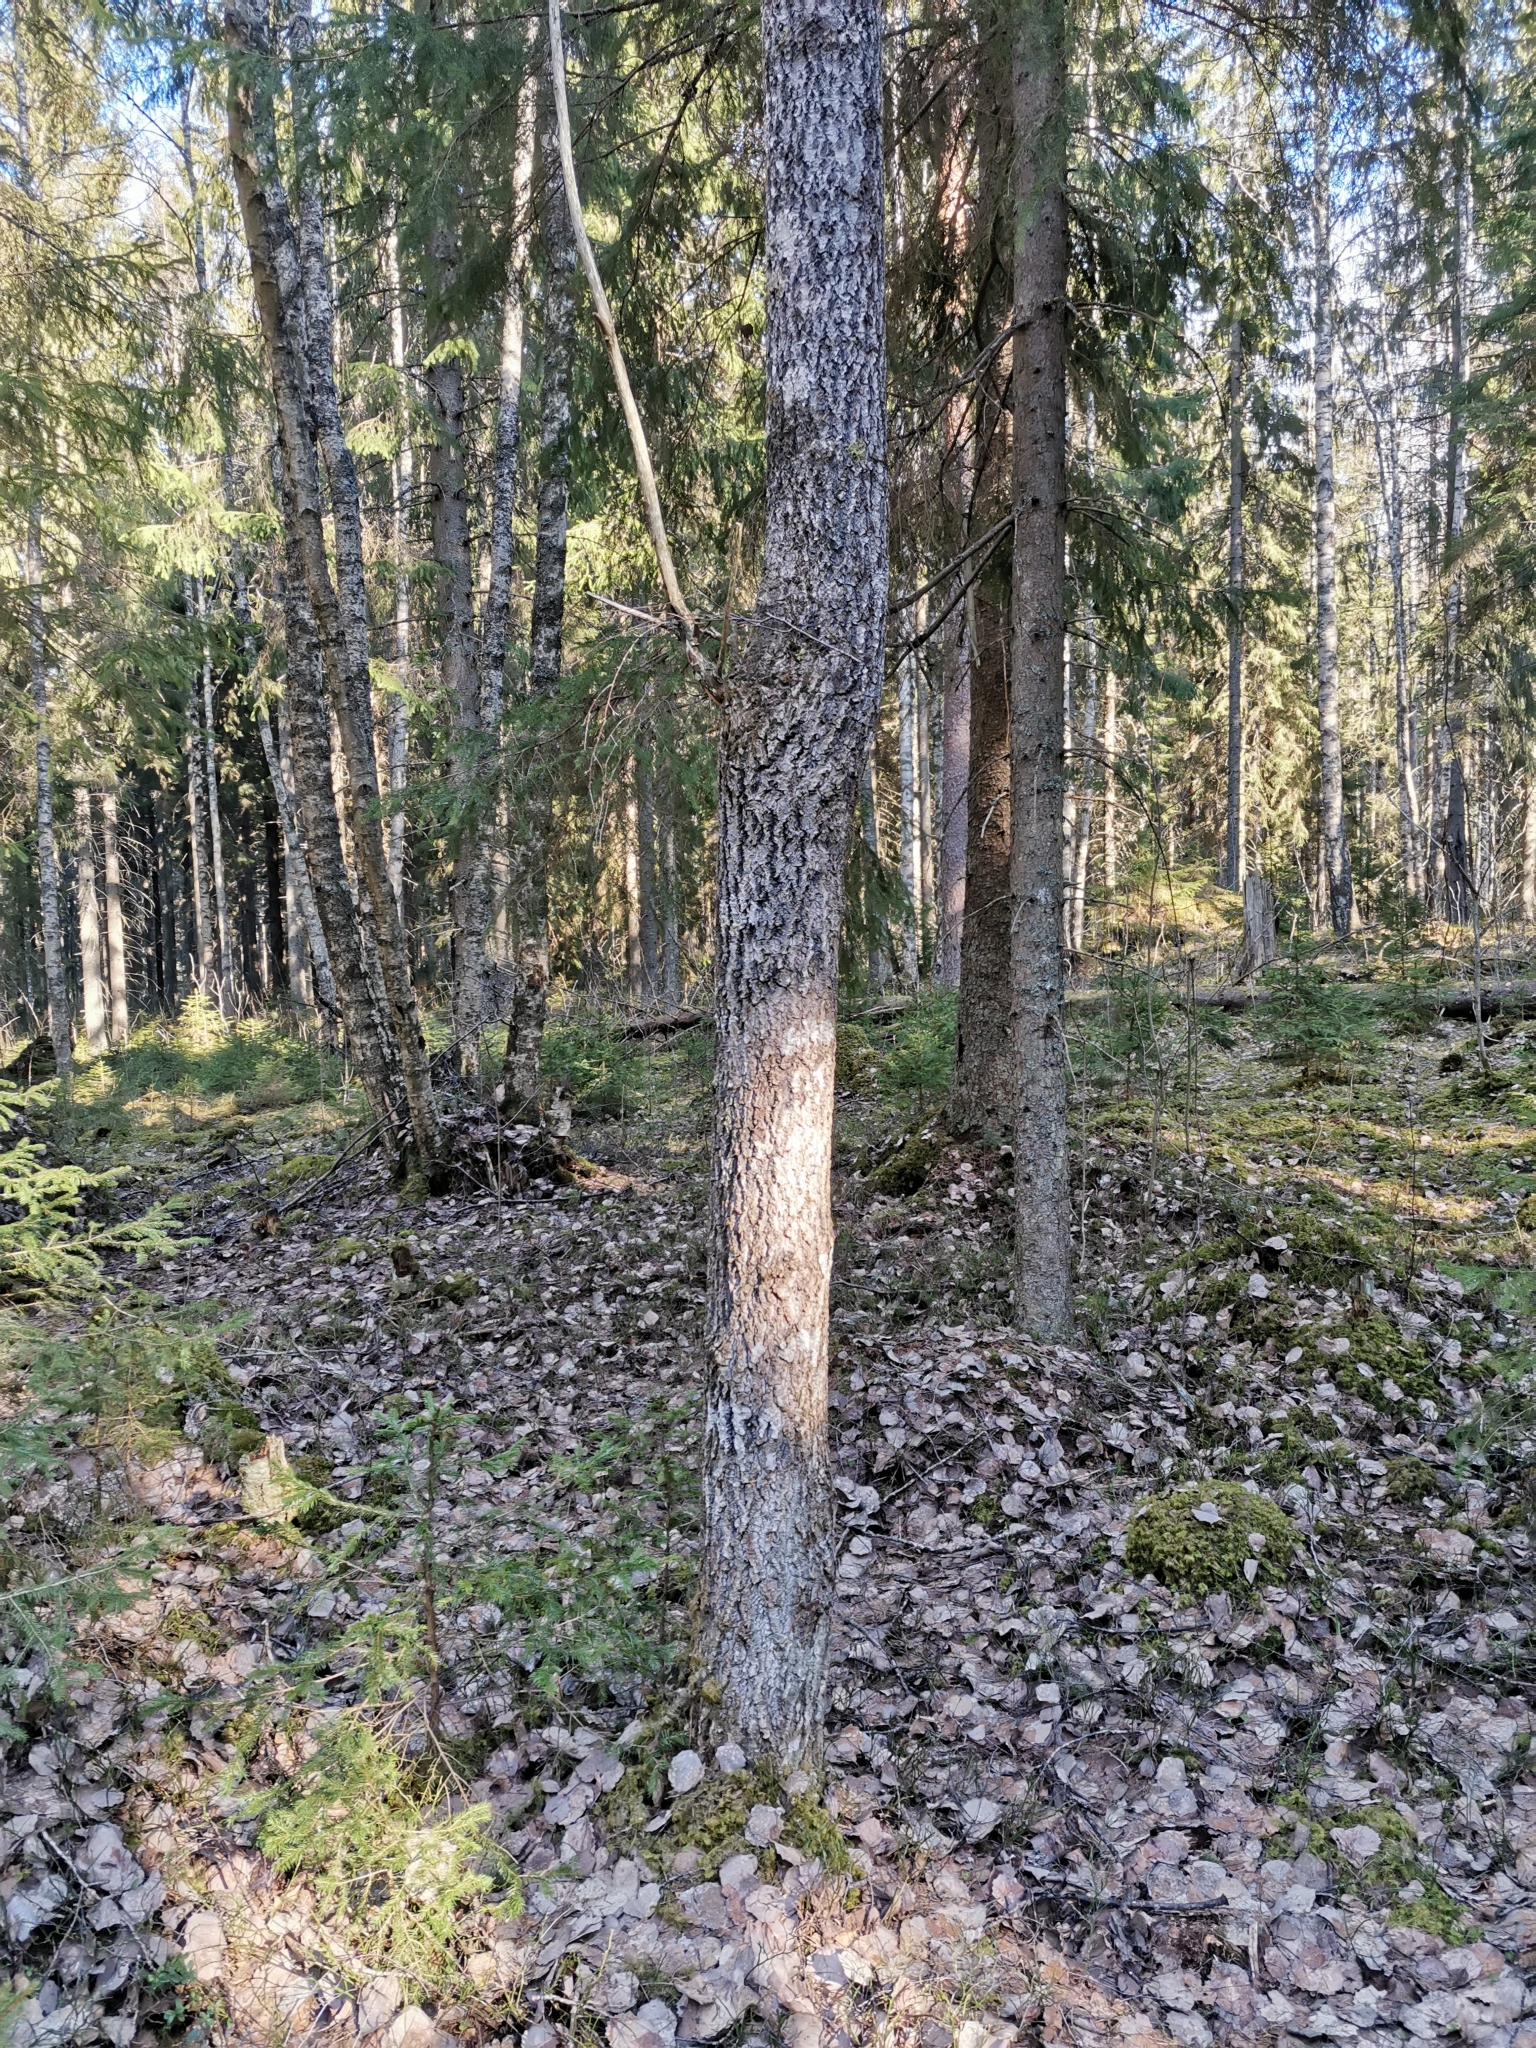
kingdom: Animalia
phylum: Chordata
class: Mammalia
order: Rodentia
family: Sciuridae
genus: Pteromys
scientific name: Pteromys volans
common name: Siberian flying squirrel
